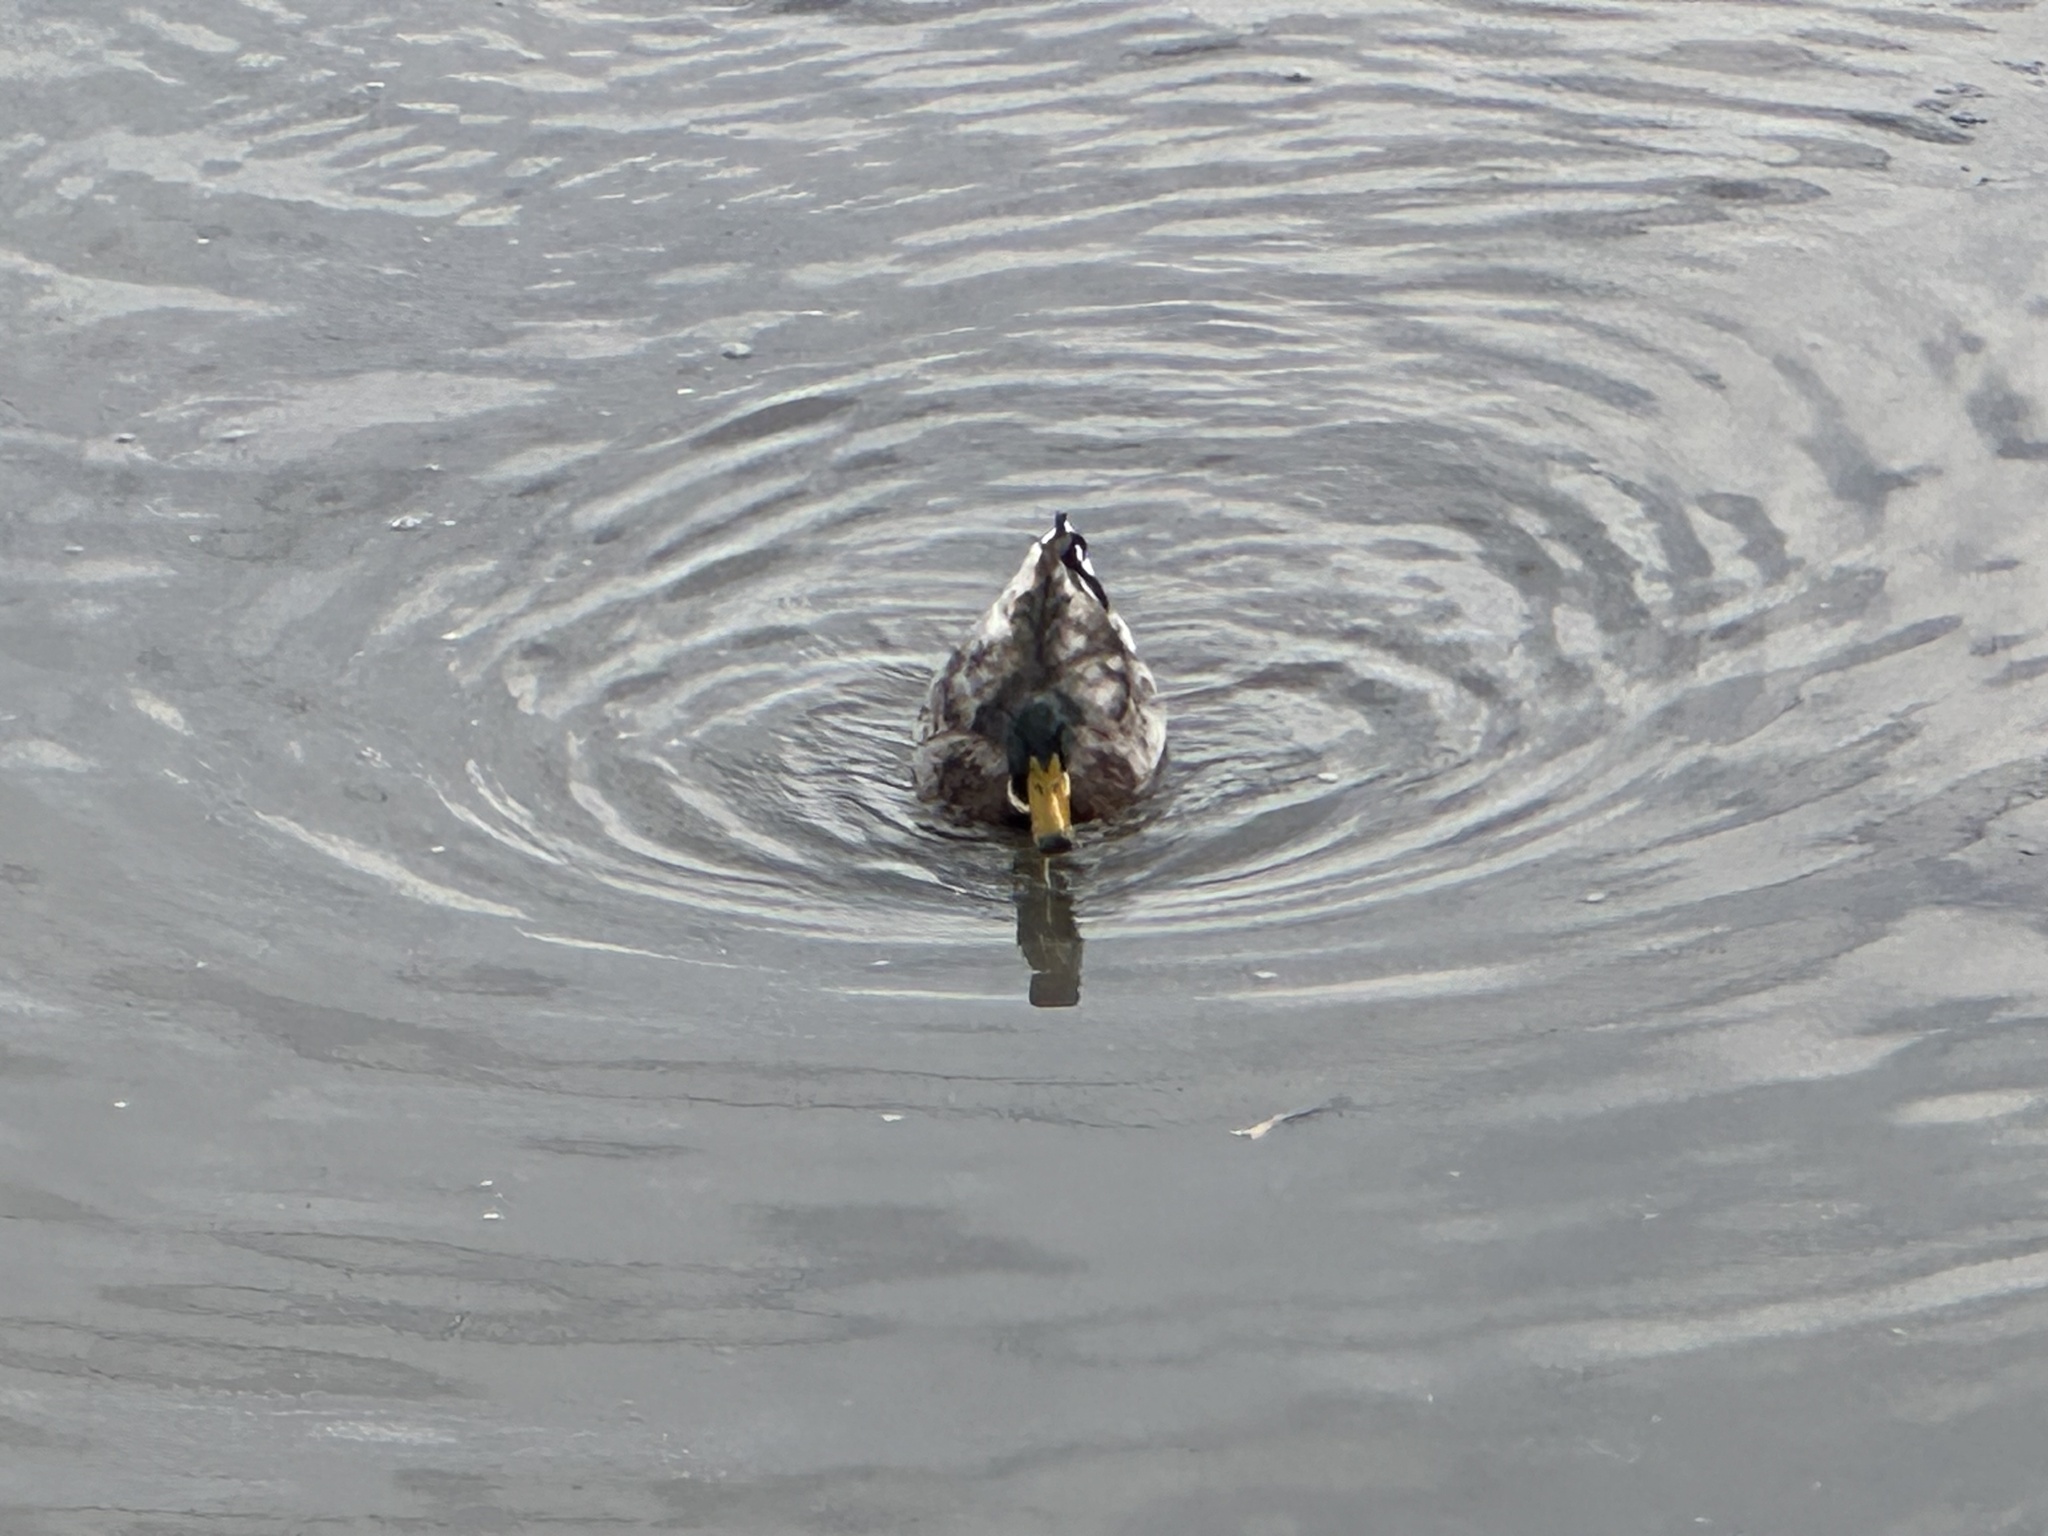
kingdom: Animalia
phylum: Chordata
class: Aves
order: Anseriformes
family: Anatidae
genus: Anas
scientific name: Anas platyrhynchos
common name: Mallard
